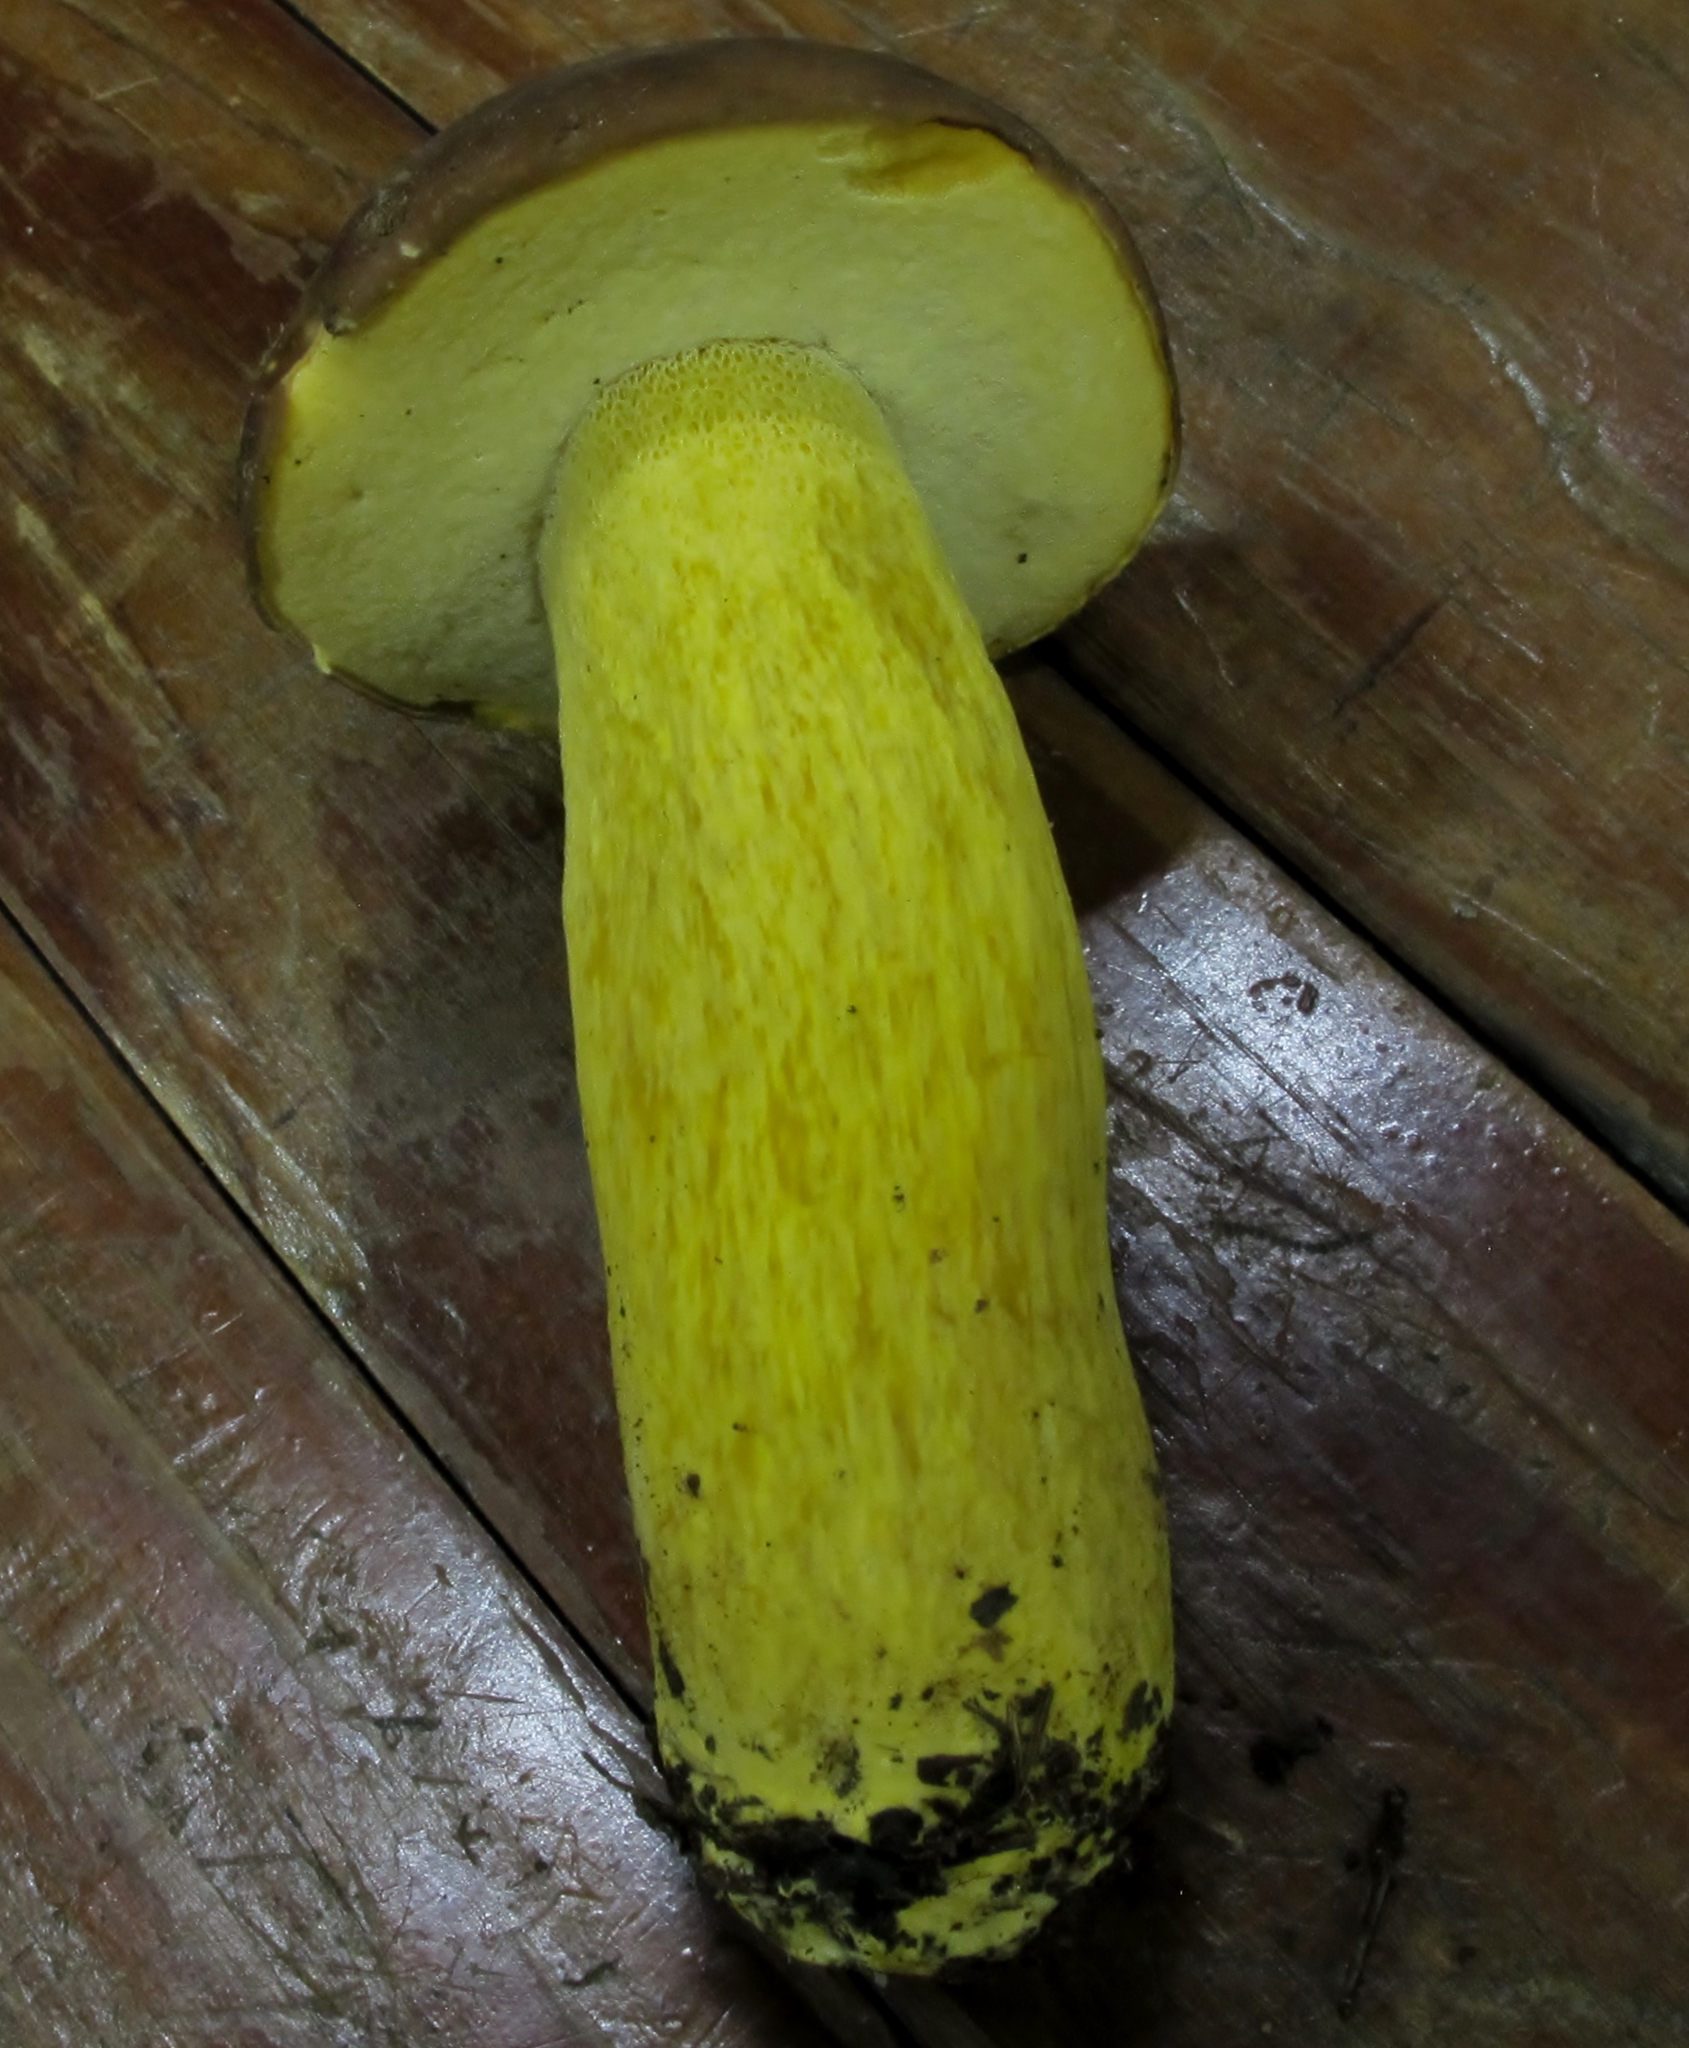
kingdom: Fungi
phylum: Basidiomycota
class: Agaricomycetes
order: Boletales
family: Boletaceae
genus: Boletus
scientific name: Boletus auripes
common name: Butter-foot bolete
